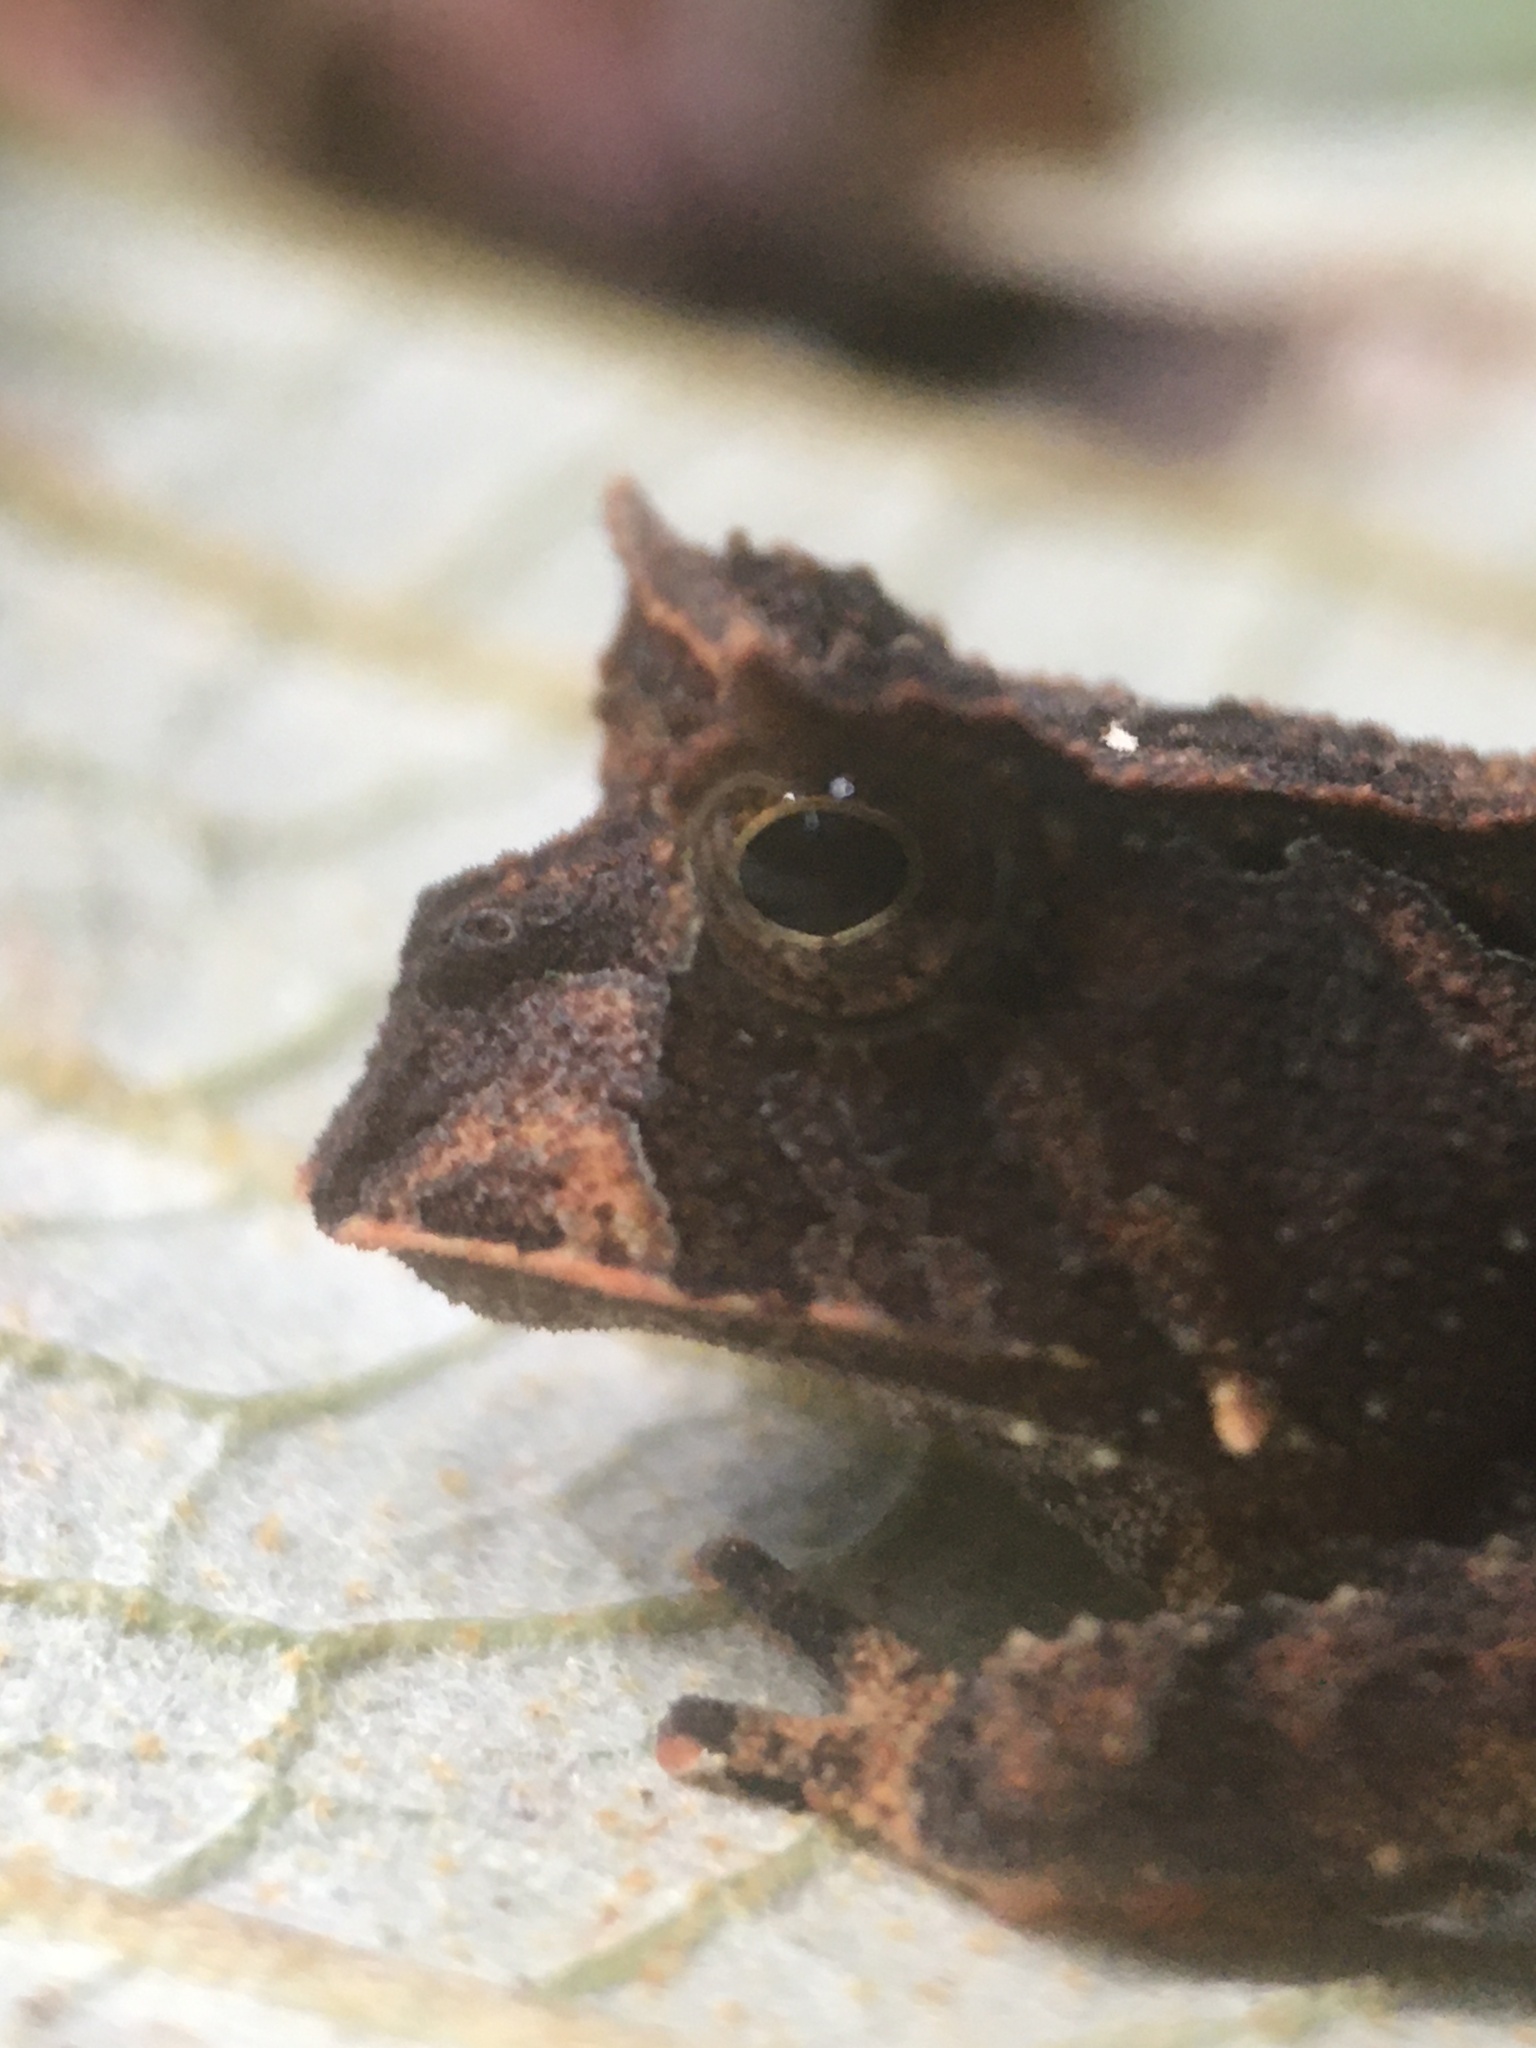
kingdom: Animalia
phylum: Chordata
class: Amphibia
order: Anura
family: Odontophrynidae
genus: Proceratophrys
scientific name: Proceratophrys renalis
